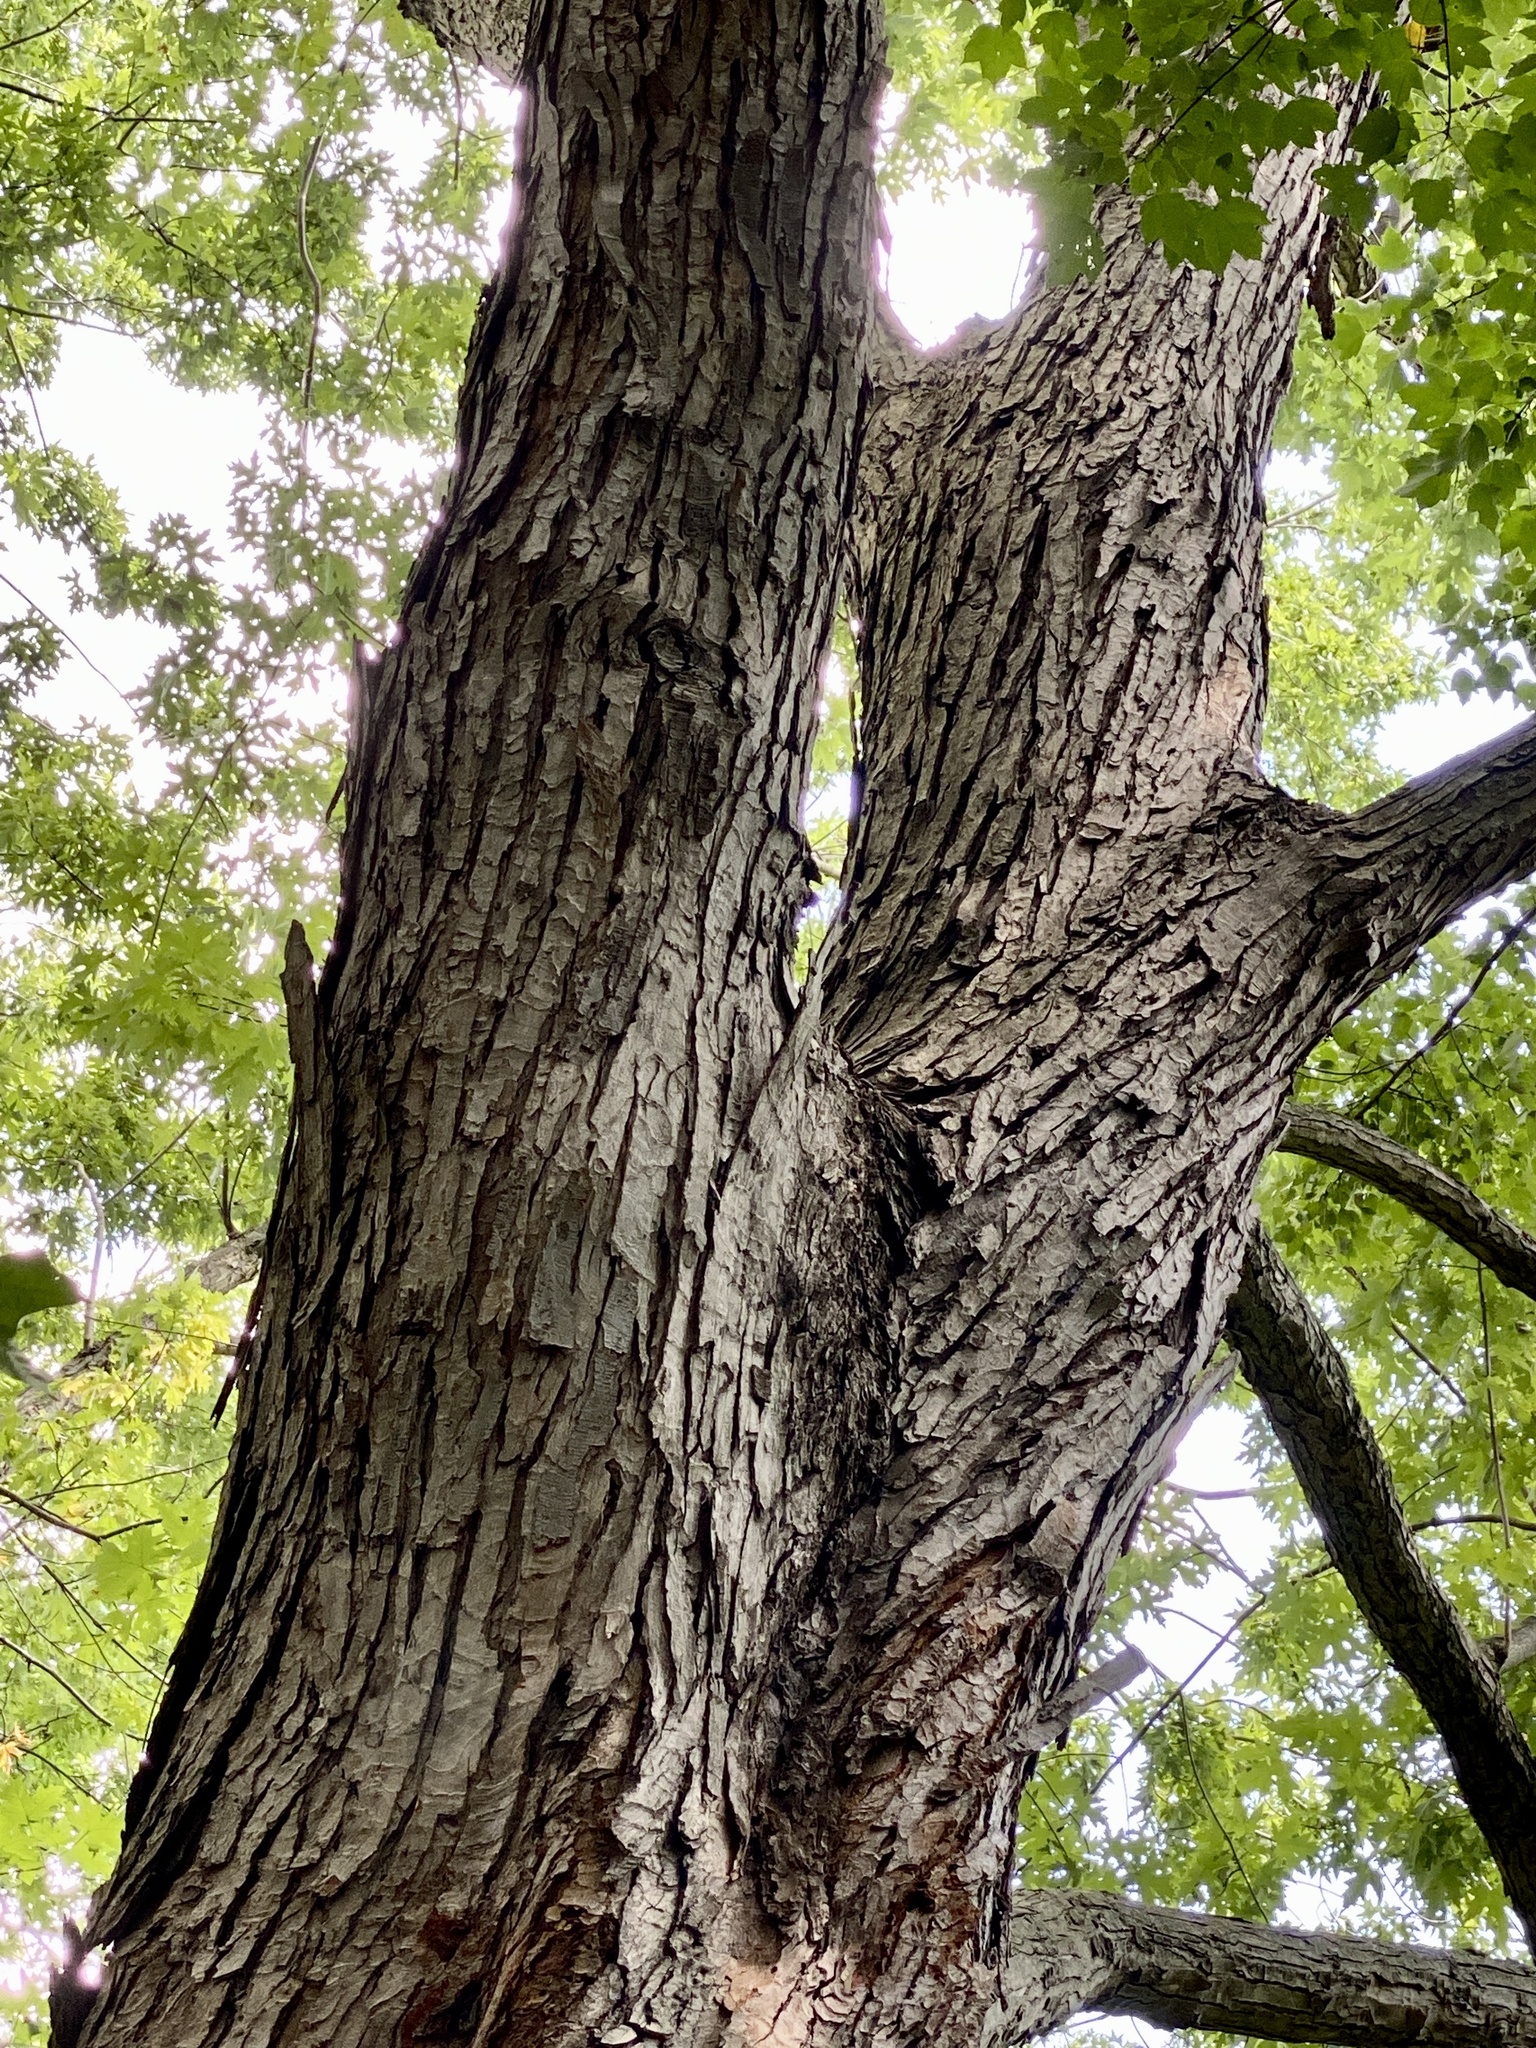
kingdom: Plantae
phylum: Tracheophyta
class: Magnoliopsida
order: Sapindales
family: Sapindaceae
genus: Acer
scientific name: Acer saccharinum
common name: Silver maple
